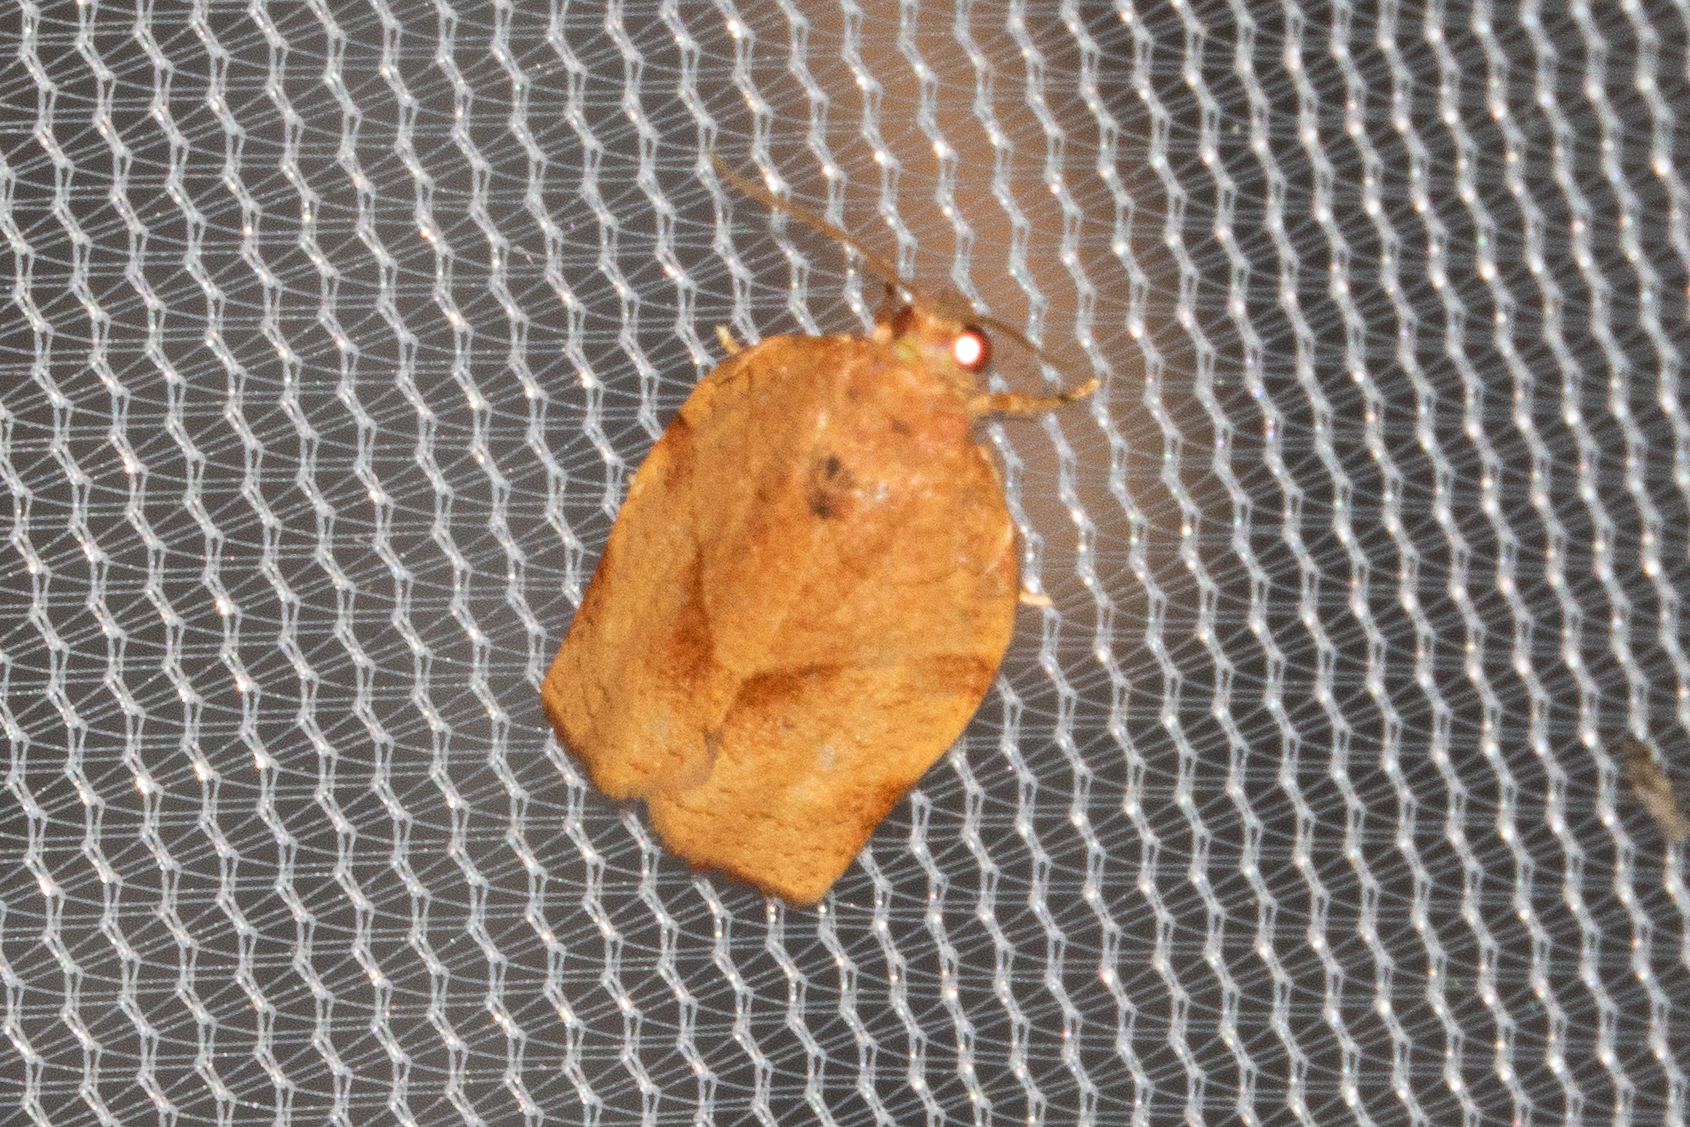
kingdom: Animalia
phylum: Arthropoda
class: Insecta
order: Lepidoptera
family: Tortricidae
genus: Choristoneura
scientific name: Choristoneura rosaceana
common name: Oblique-banded leafroller moth
